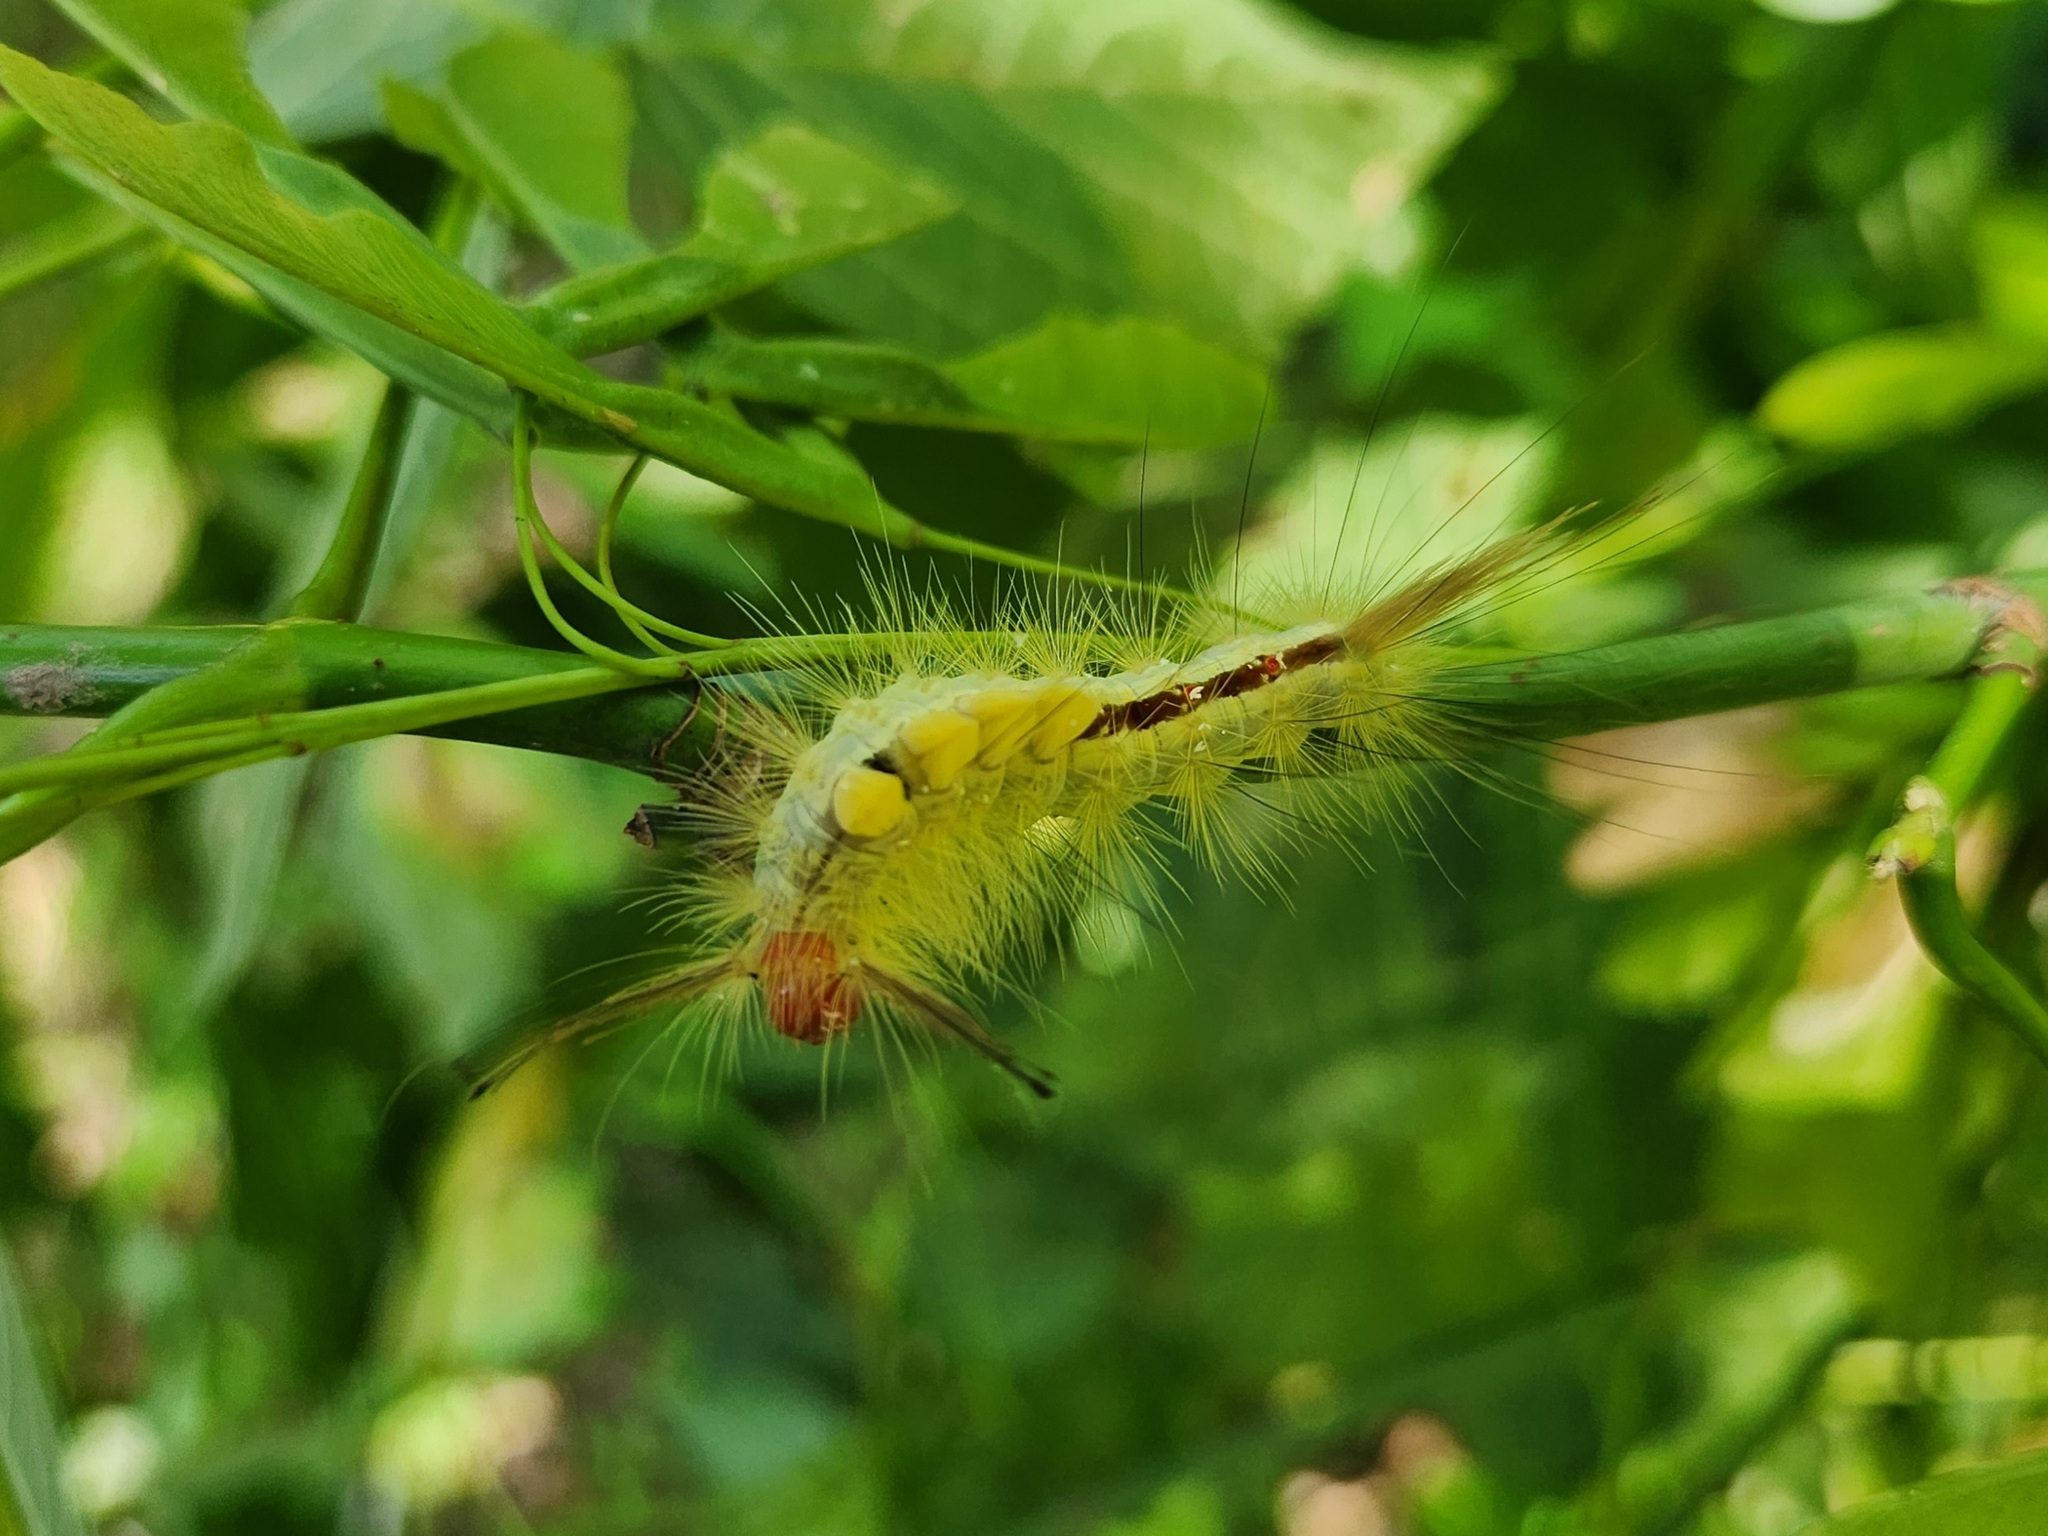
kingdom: Animalia
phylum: Arthropoda
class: Insecta
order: Lepidoptera
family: Erebidae
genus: Orgyia
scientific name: Orgyia leucostigma
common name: White-marked tussock moth
